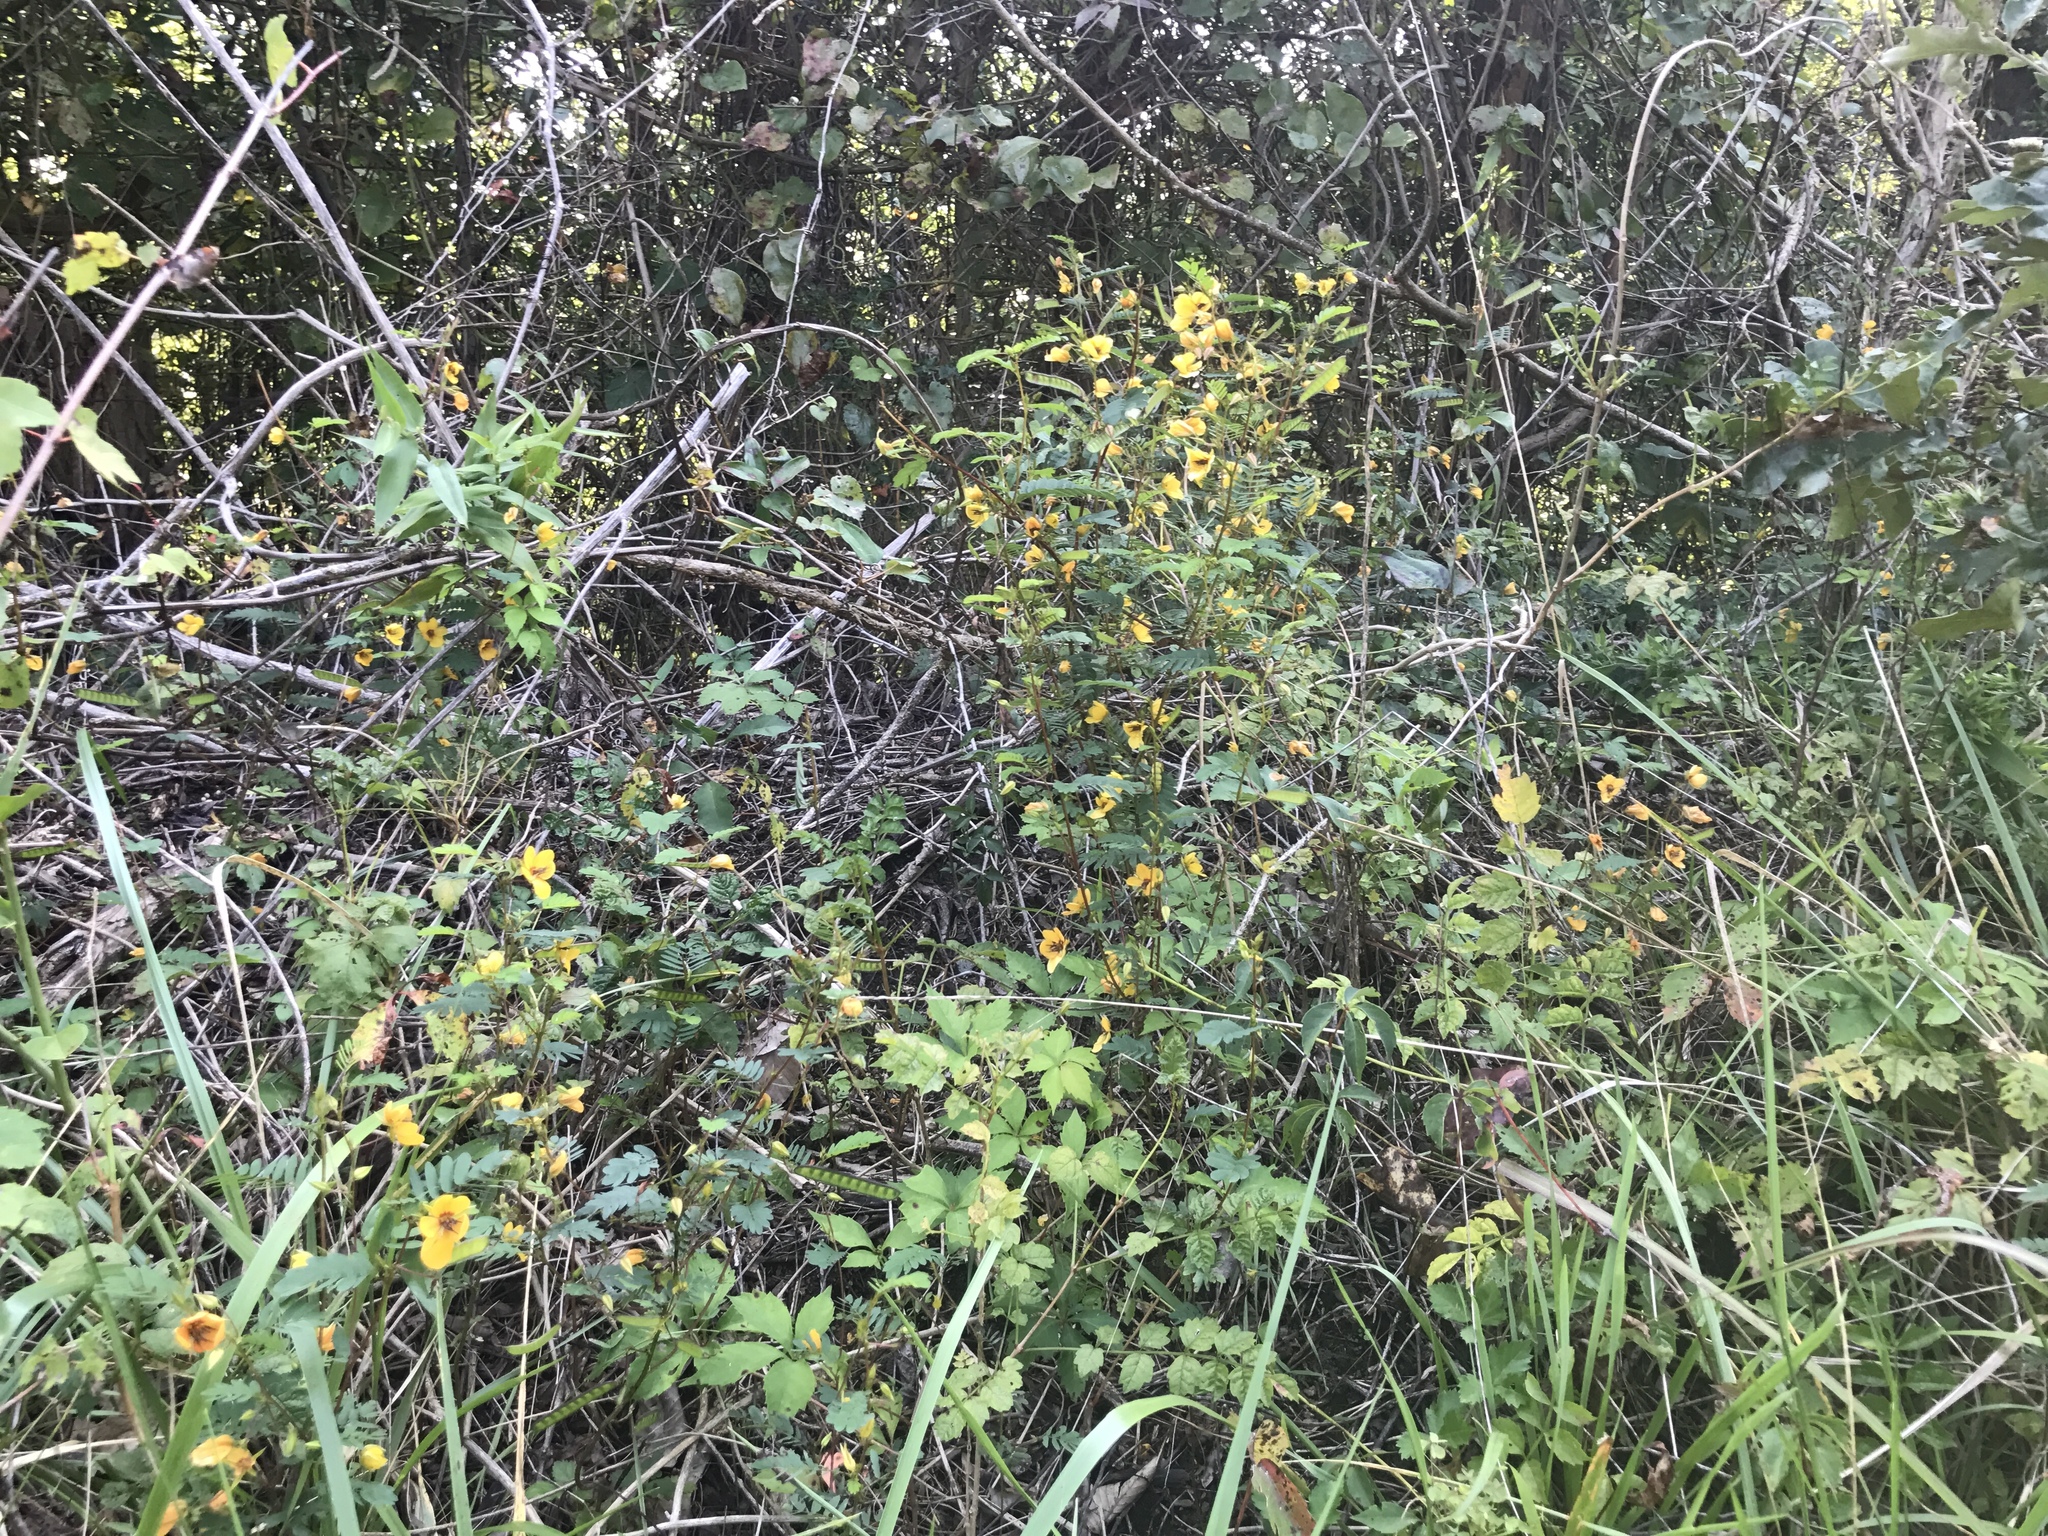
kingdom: Plantae
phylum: Tracheophyta
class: Magnoliopsida
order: Fabales
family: Fabaceae
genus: Chamaecrista
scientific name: Chamaecrista fasciculata
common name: Golden cassia
